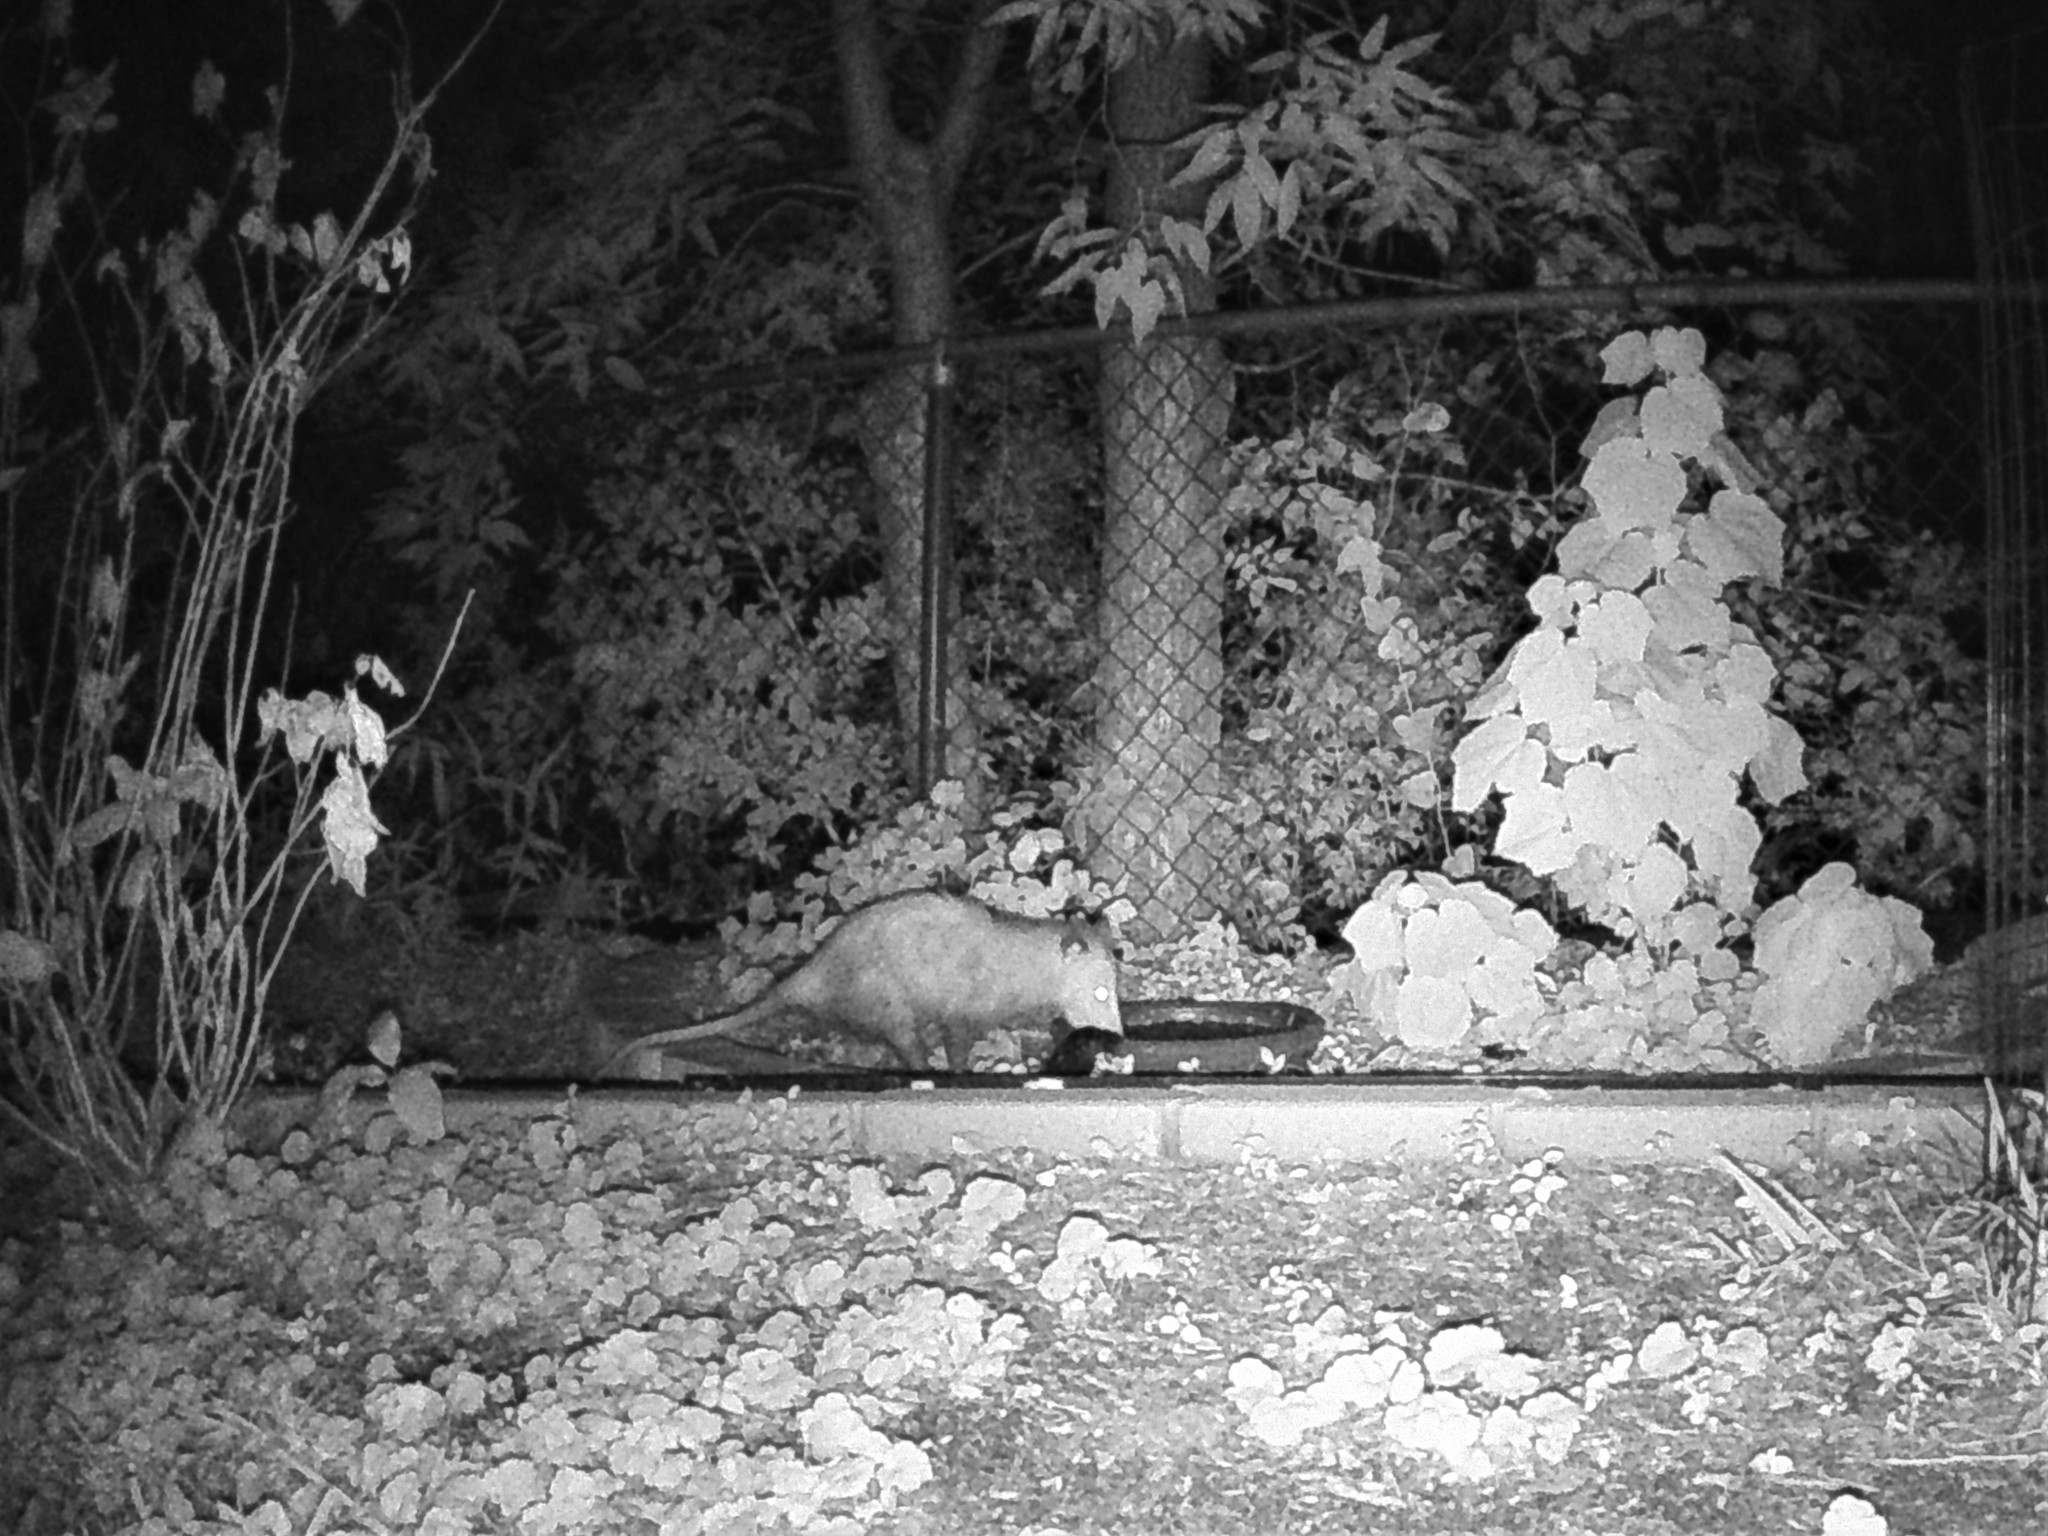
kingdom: Animalia
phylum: Chordata
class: Mammalia
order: Didelphimorphia
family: Didelphidae
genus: Didelphis
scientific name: Didelphis virginiana
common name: Virginia opossum
